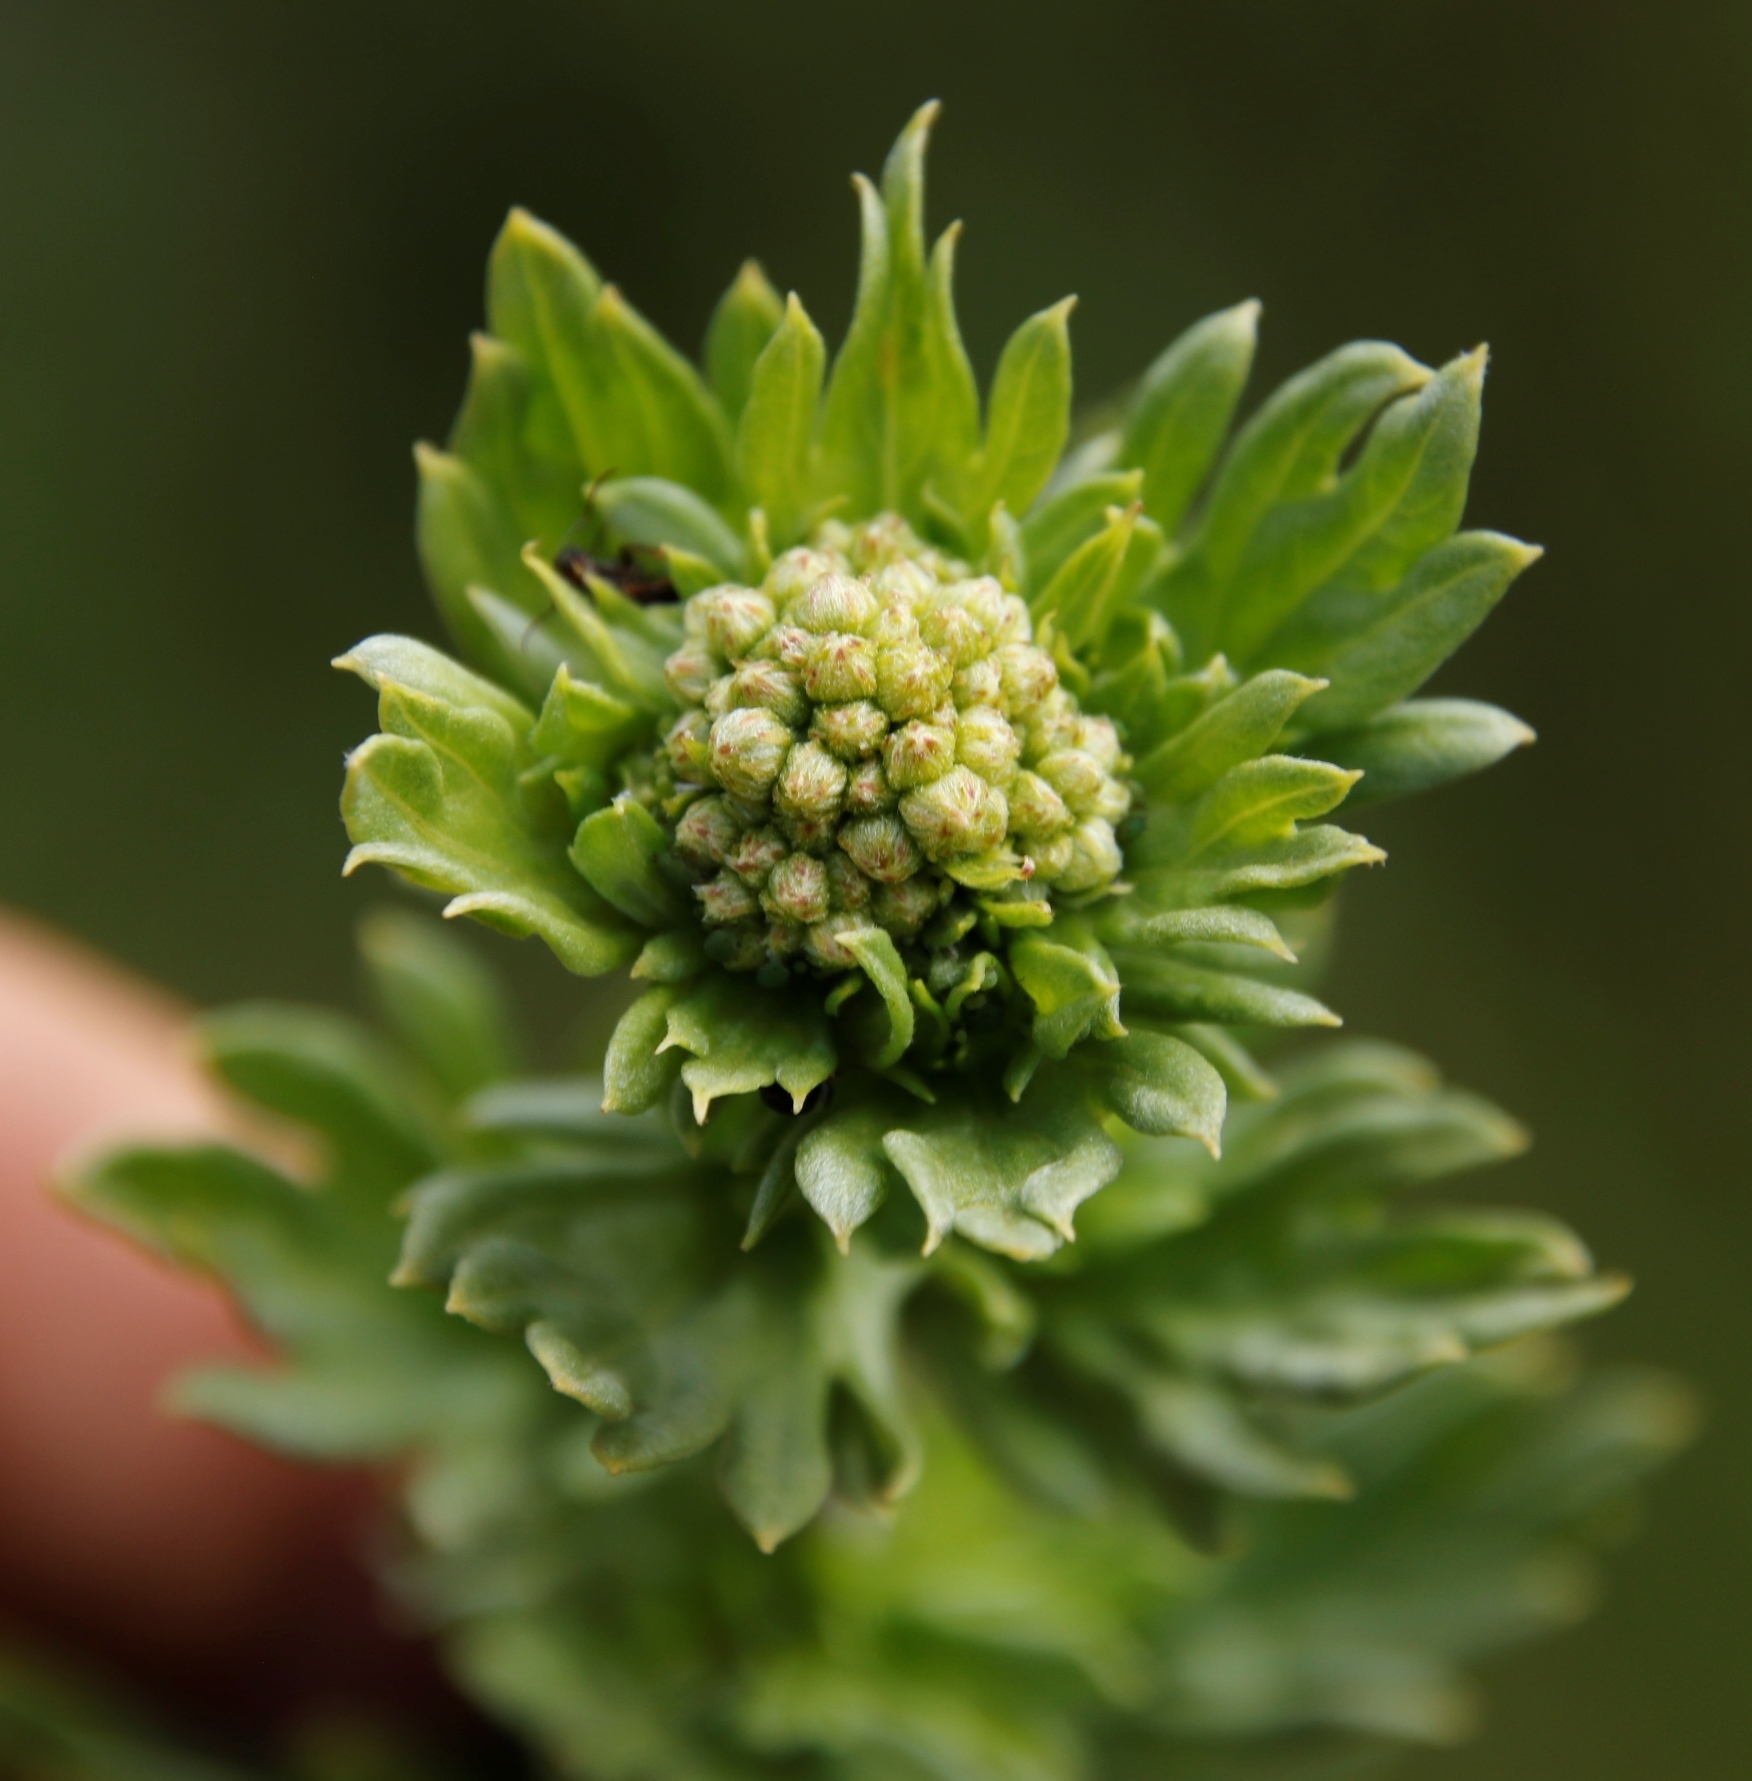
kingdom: Plantae
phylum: Tracheophyta
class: Magnoliopsida
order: Asterales
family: Asteraceae
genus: Schistostephium
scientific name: Schistostephium crataegifolium
